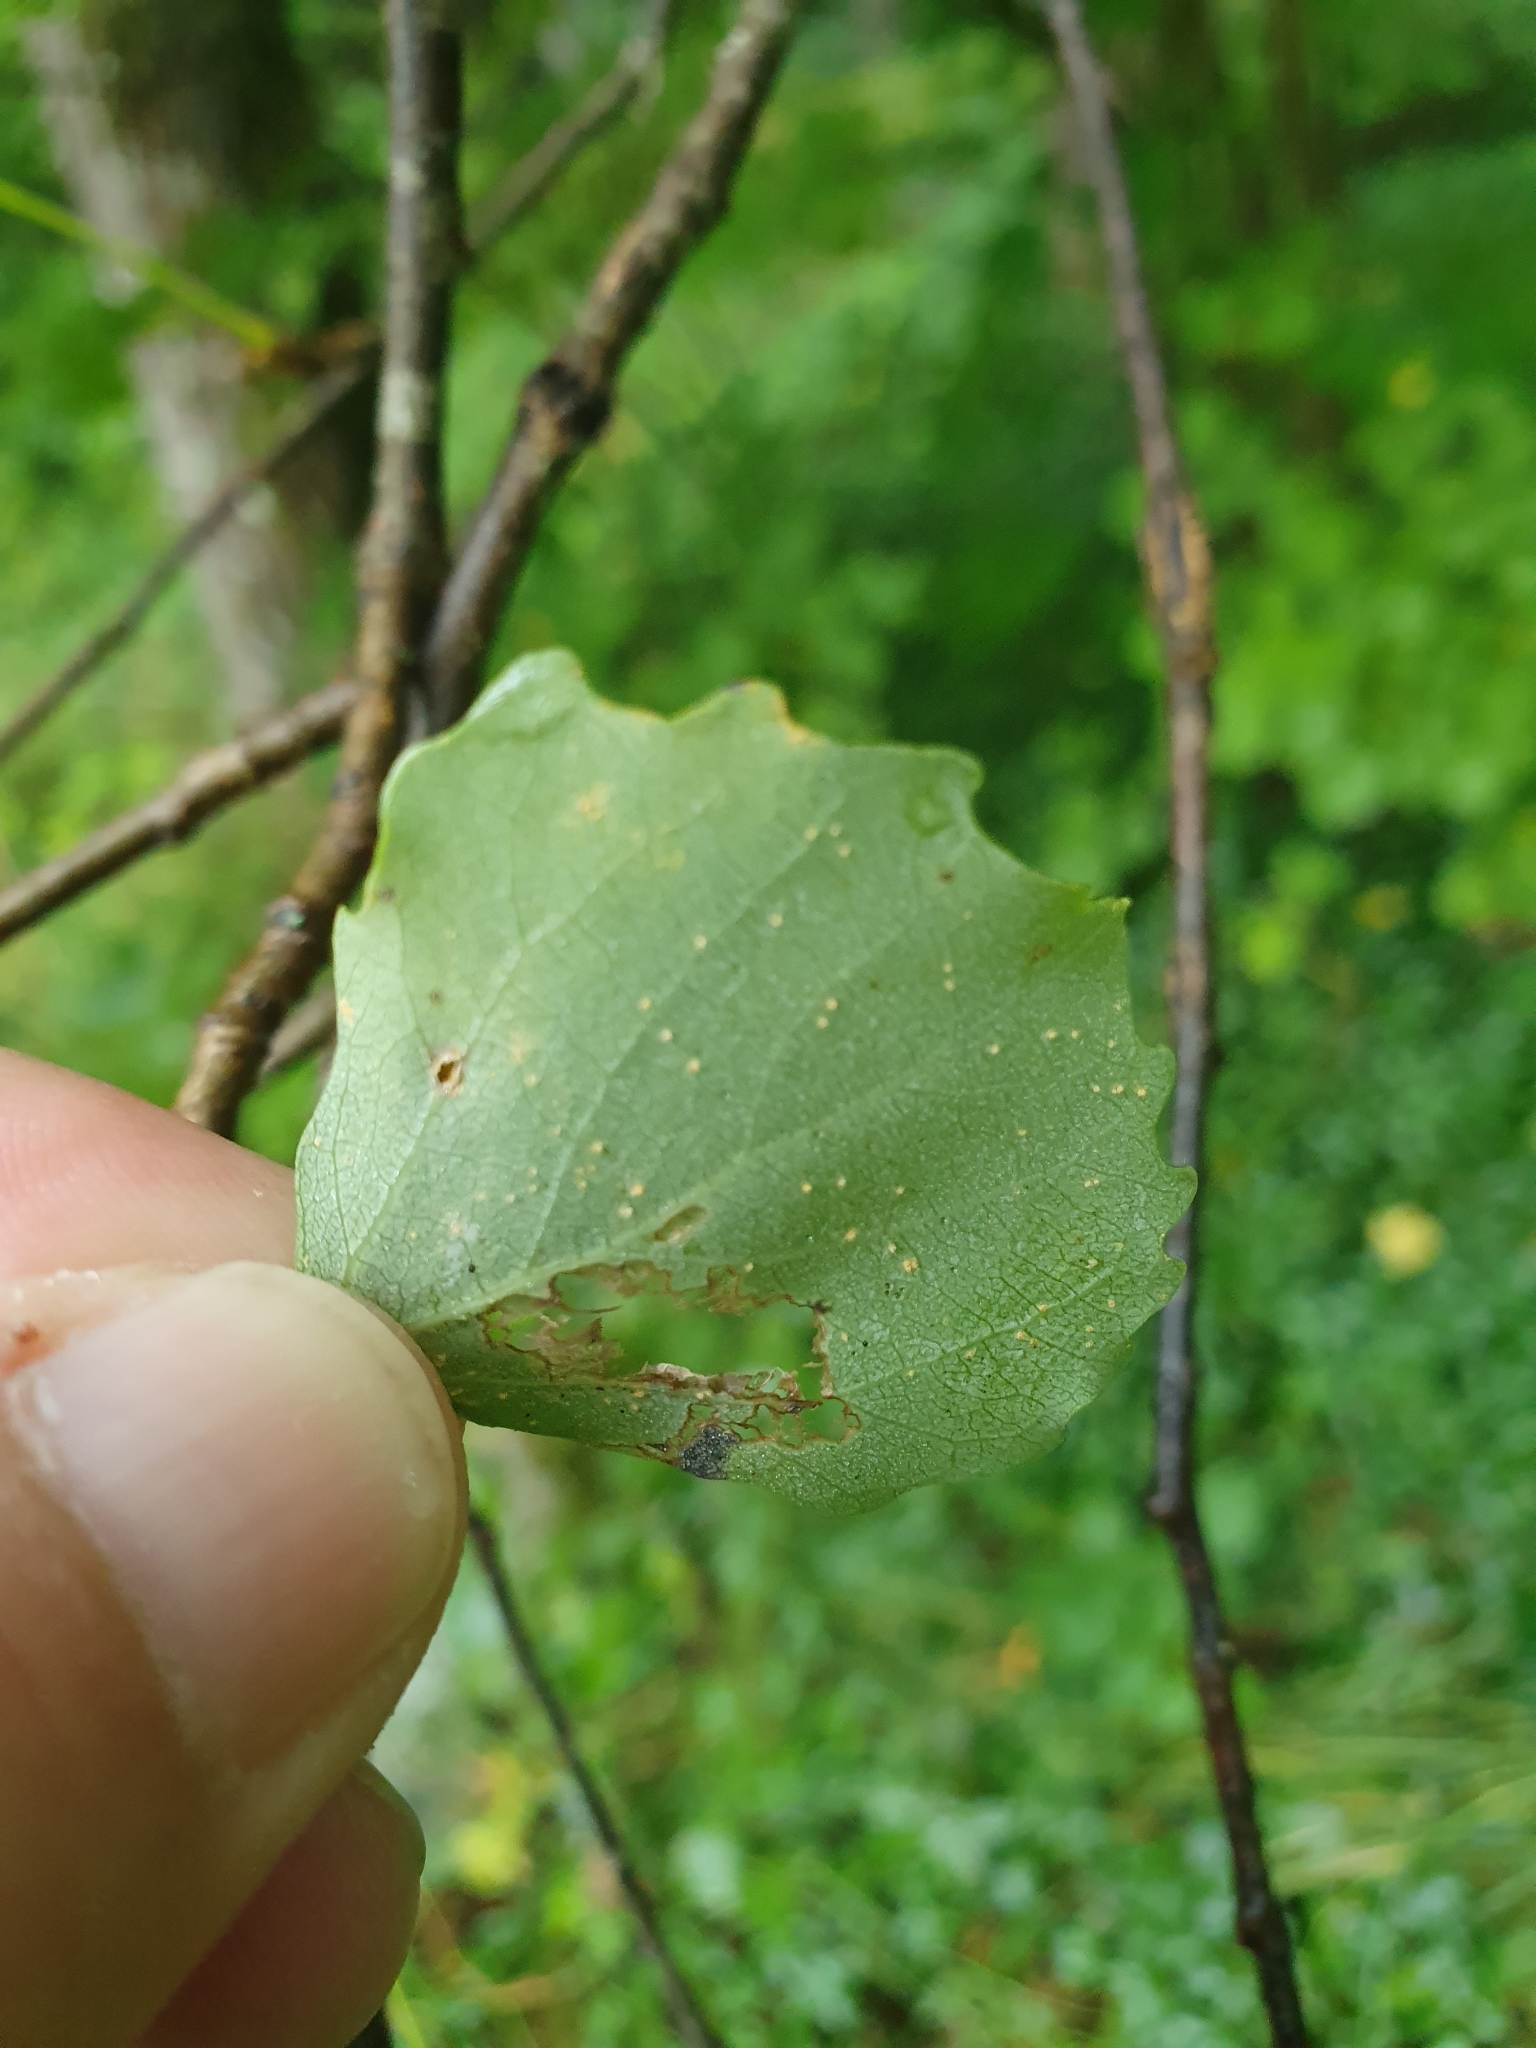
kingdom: Animalia
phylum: Arthropoda
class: Insecta
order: Diptera
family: Cecidomyiidae
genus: Harmandiola
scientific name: Harmandiola globuli
